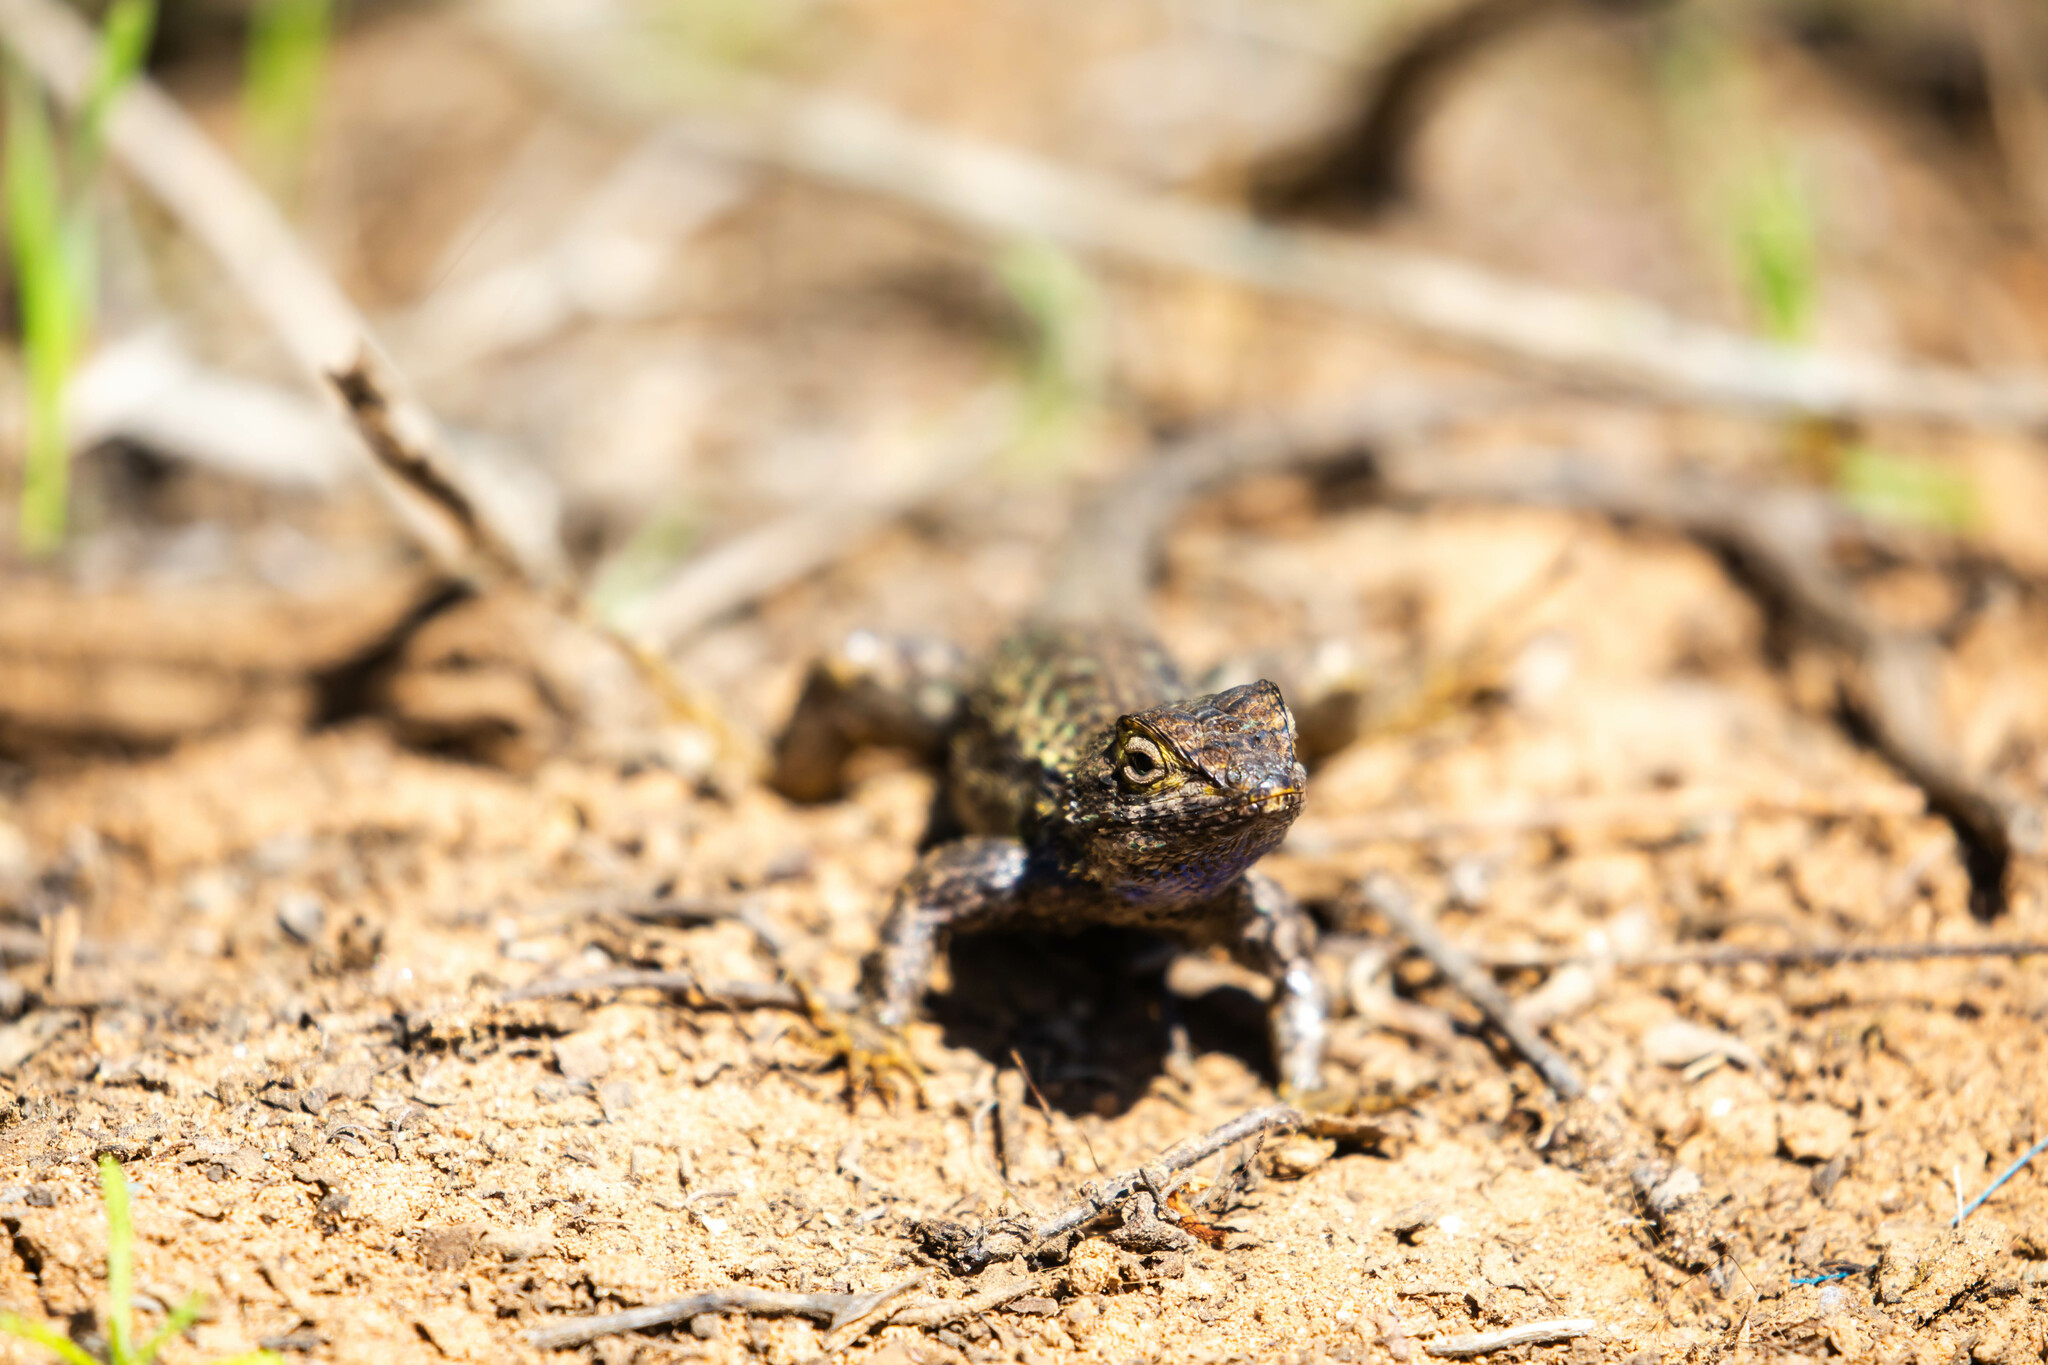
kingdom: Animalia
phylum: Chordata
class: Squamata
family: Phrynosomatidae
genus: Sceloporus
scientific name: Sceloporus occidentalis
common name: Western fence lizard
